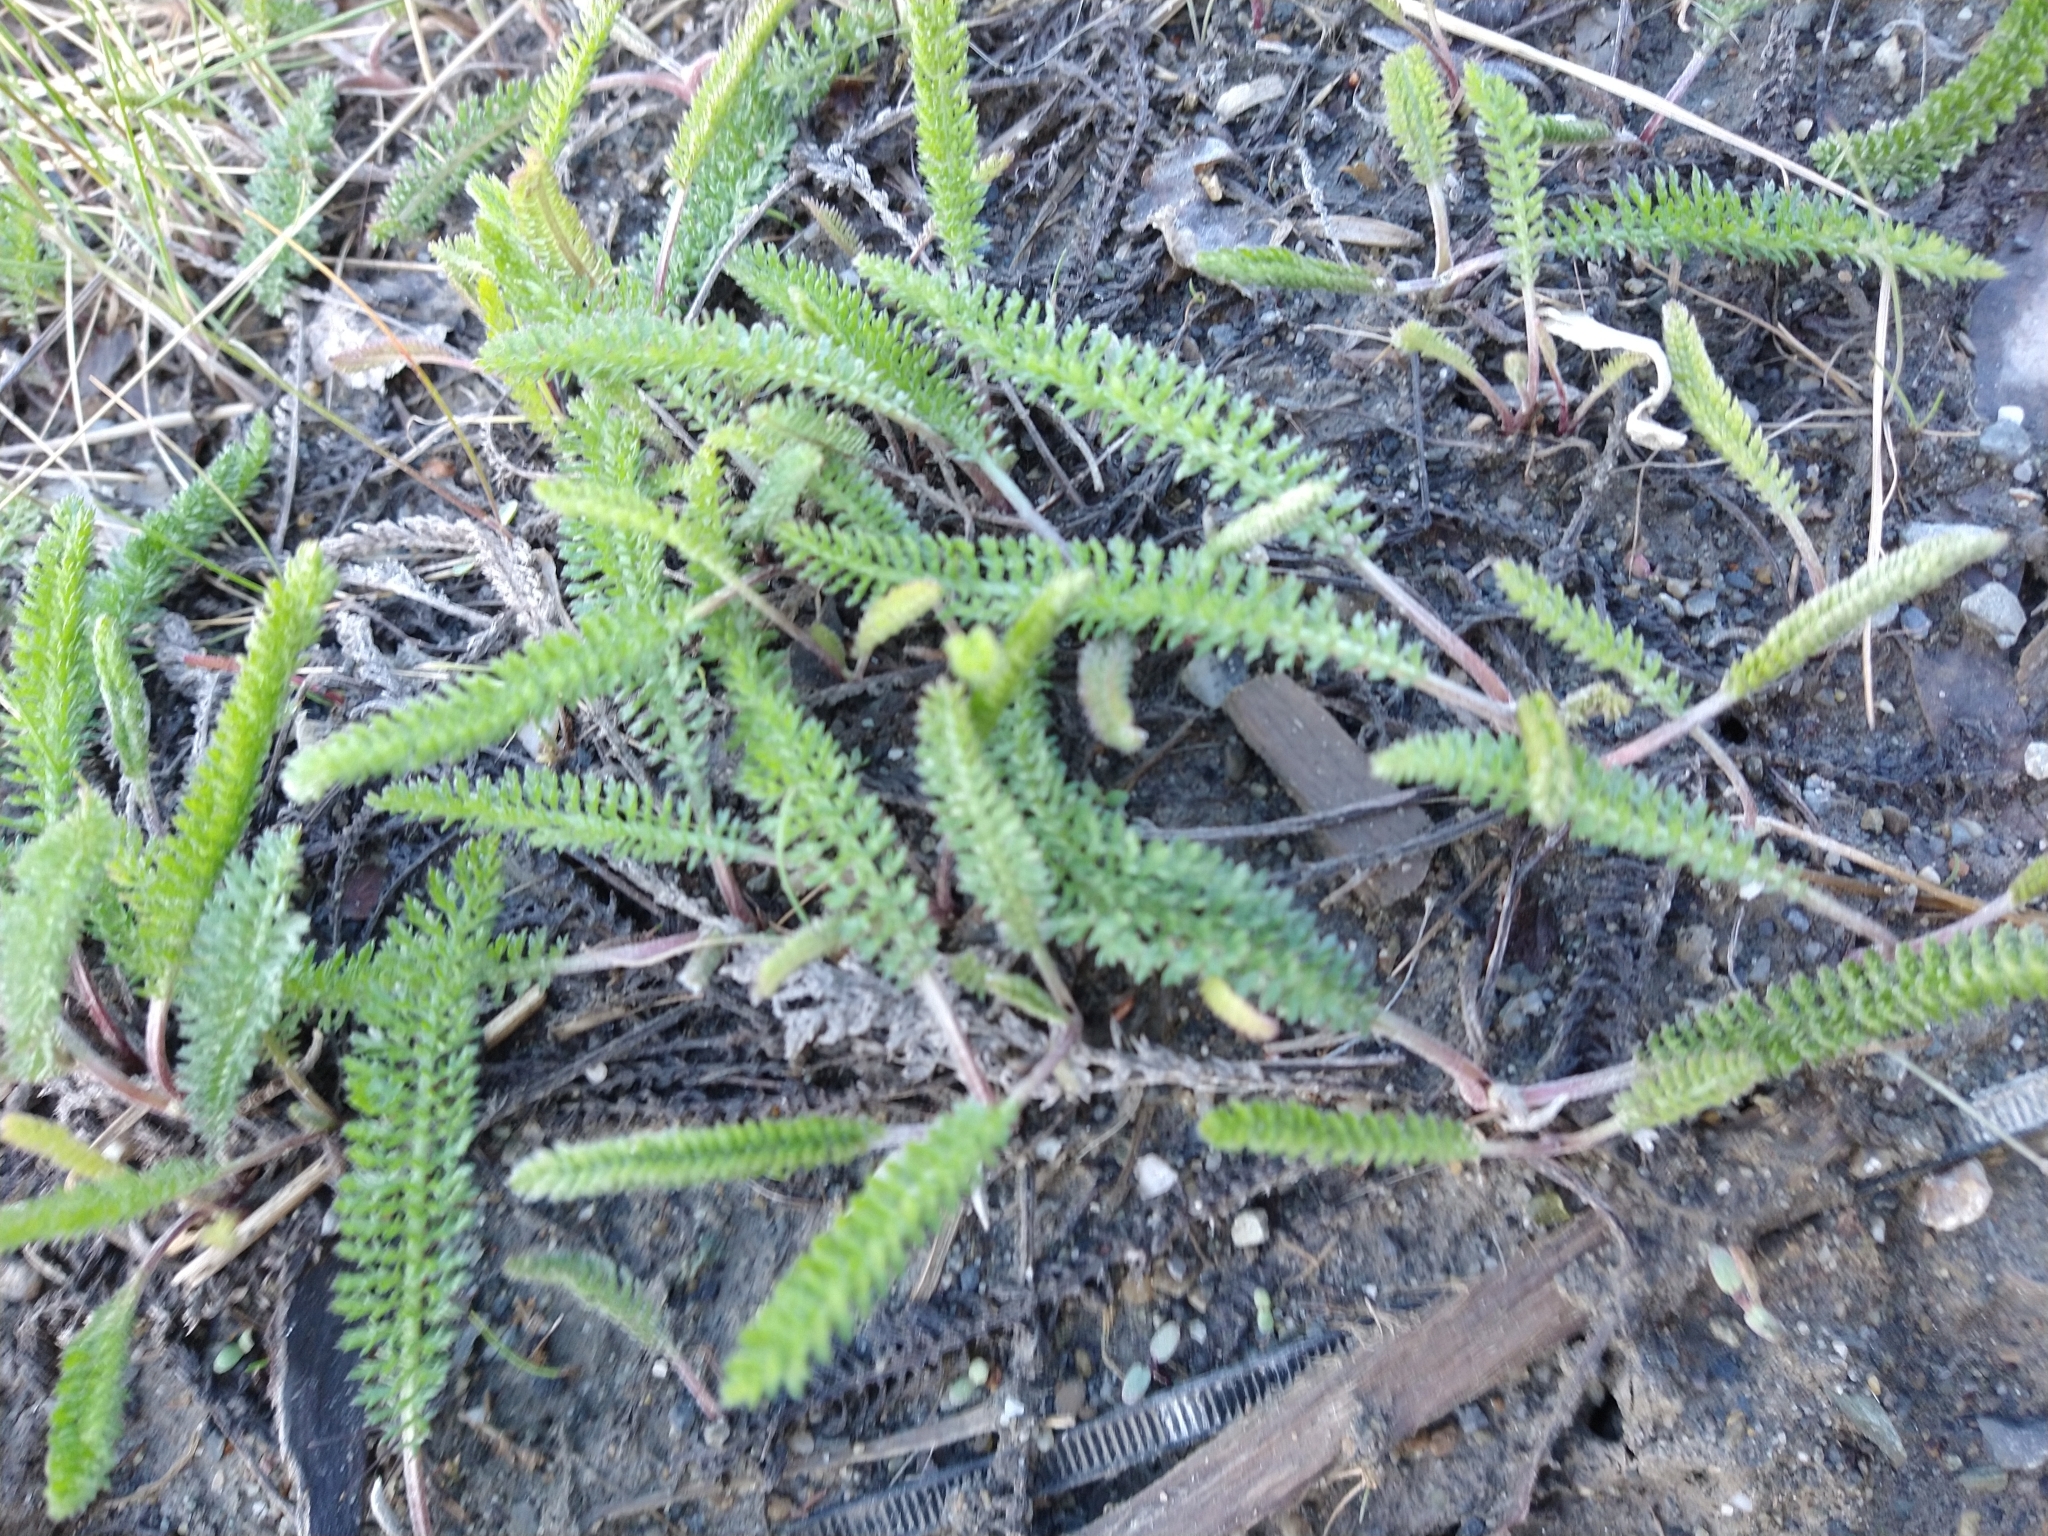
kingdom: Plantae
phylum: Tracheophyta
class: Magnoliopsida
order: Asterales
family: Asteraceae
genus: Achillea
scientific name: Achillea millefolium
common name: Yarrow
